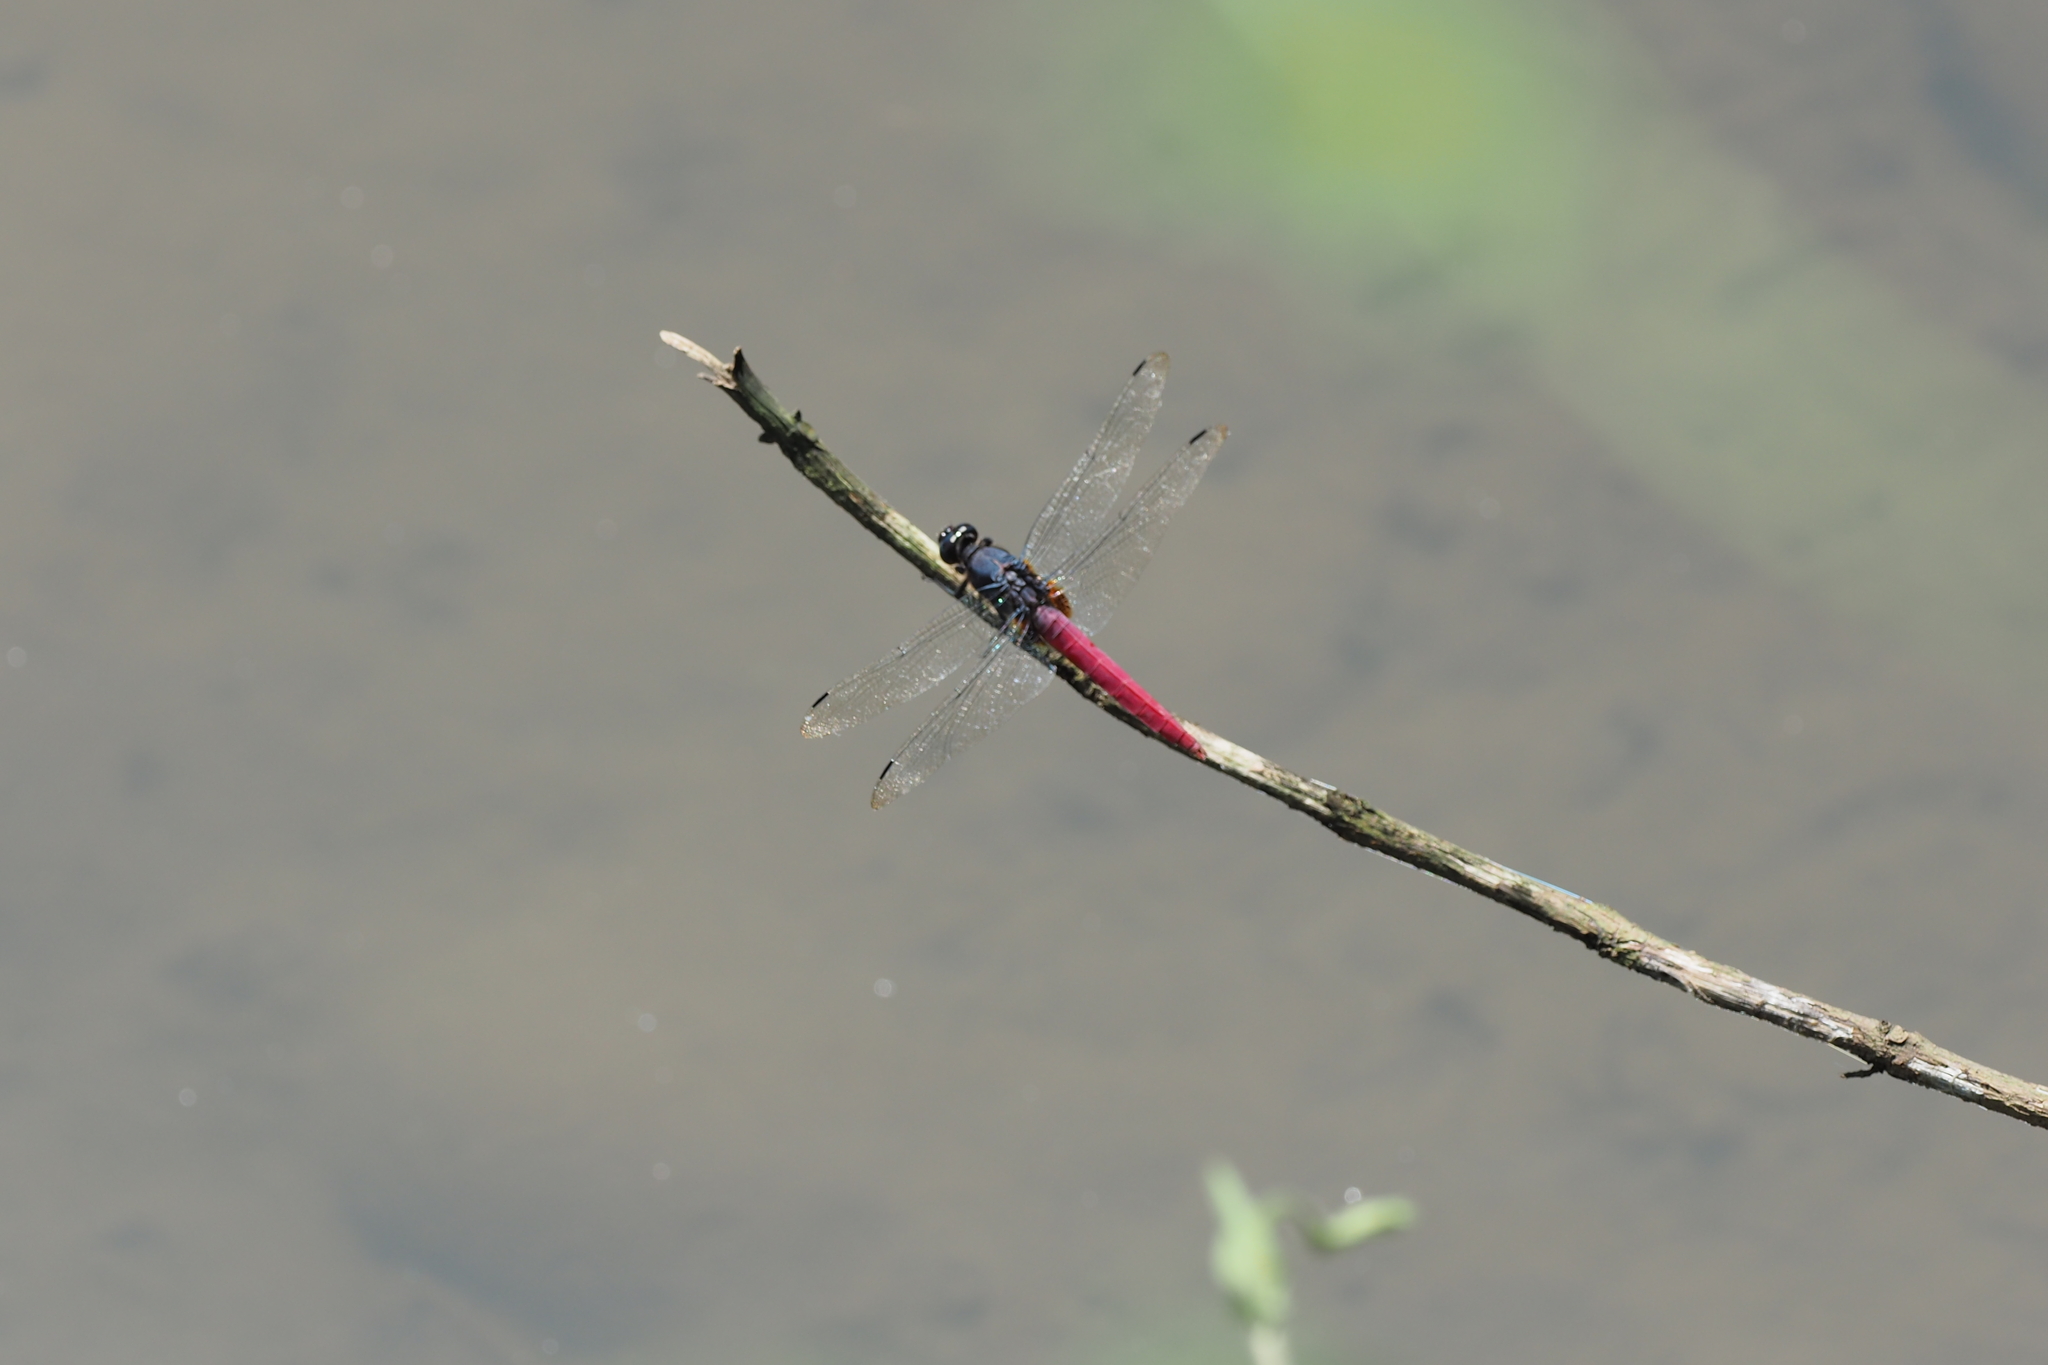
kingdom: Animalia
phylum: Arthropoda
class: Insecta
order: Odonata
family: Libellulidae
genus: Orthetrum
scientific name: Orthetrum pruinosum
